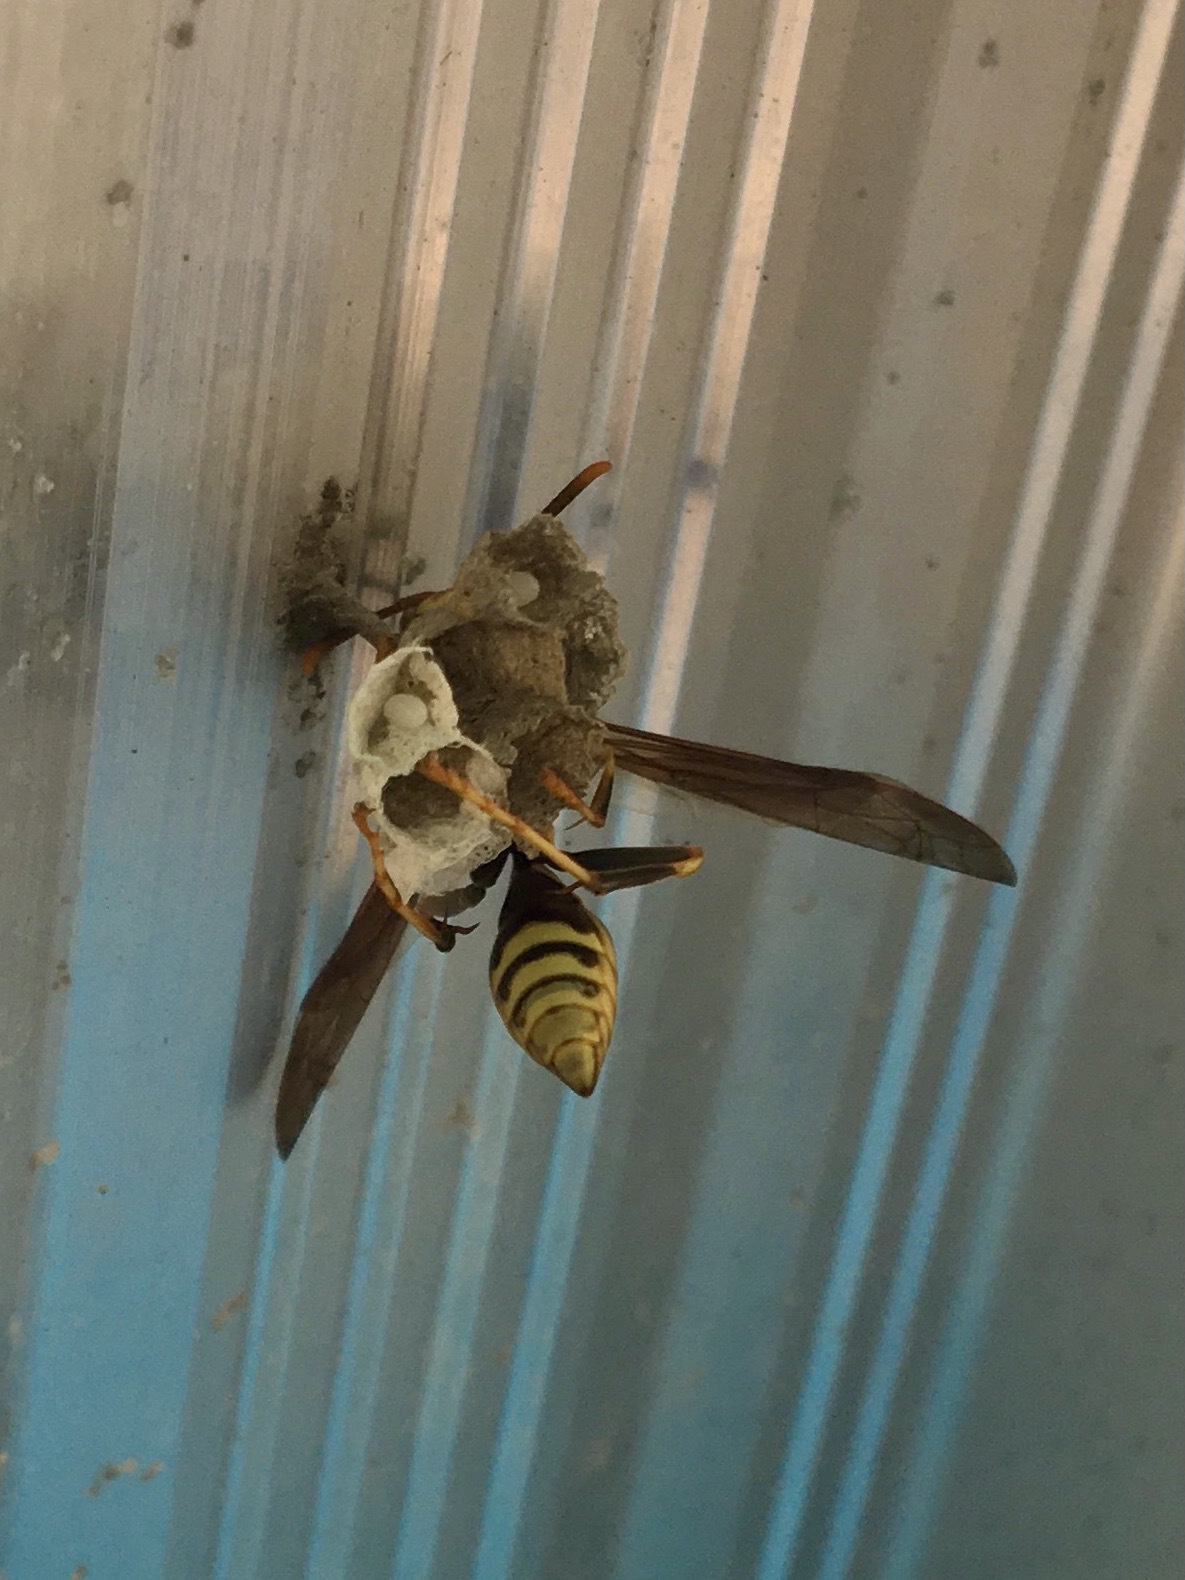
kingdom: Animalia
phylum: Arthropoda
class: Insecta
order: Hymenoptera
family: Eumenidae
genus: Polistes
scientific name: Polistes exclamans
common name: Paper wasp
